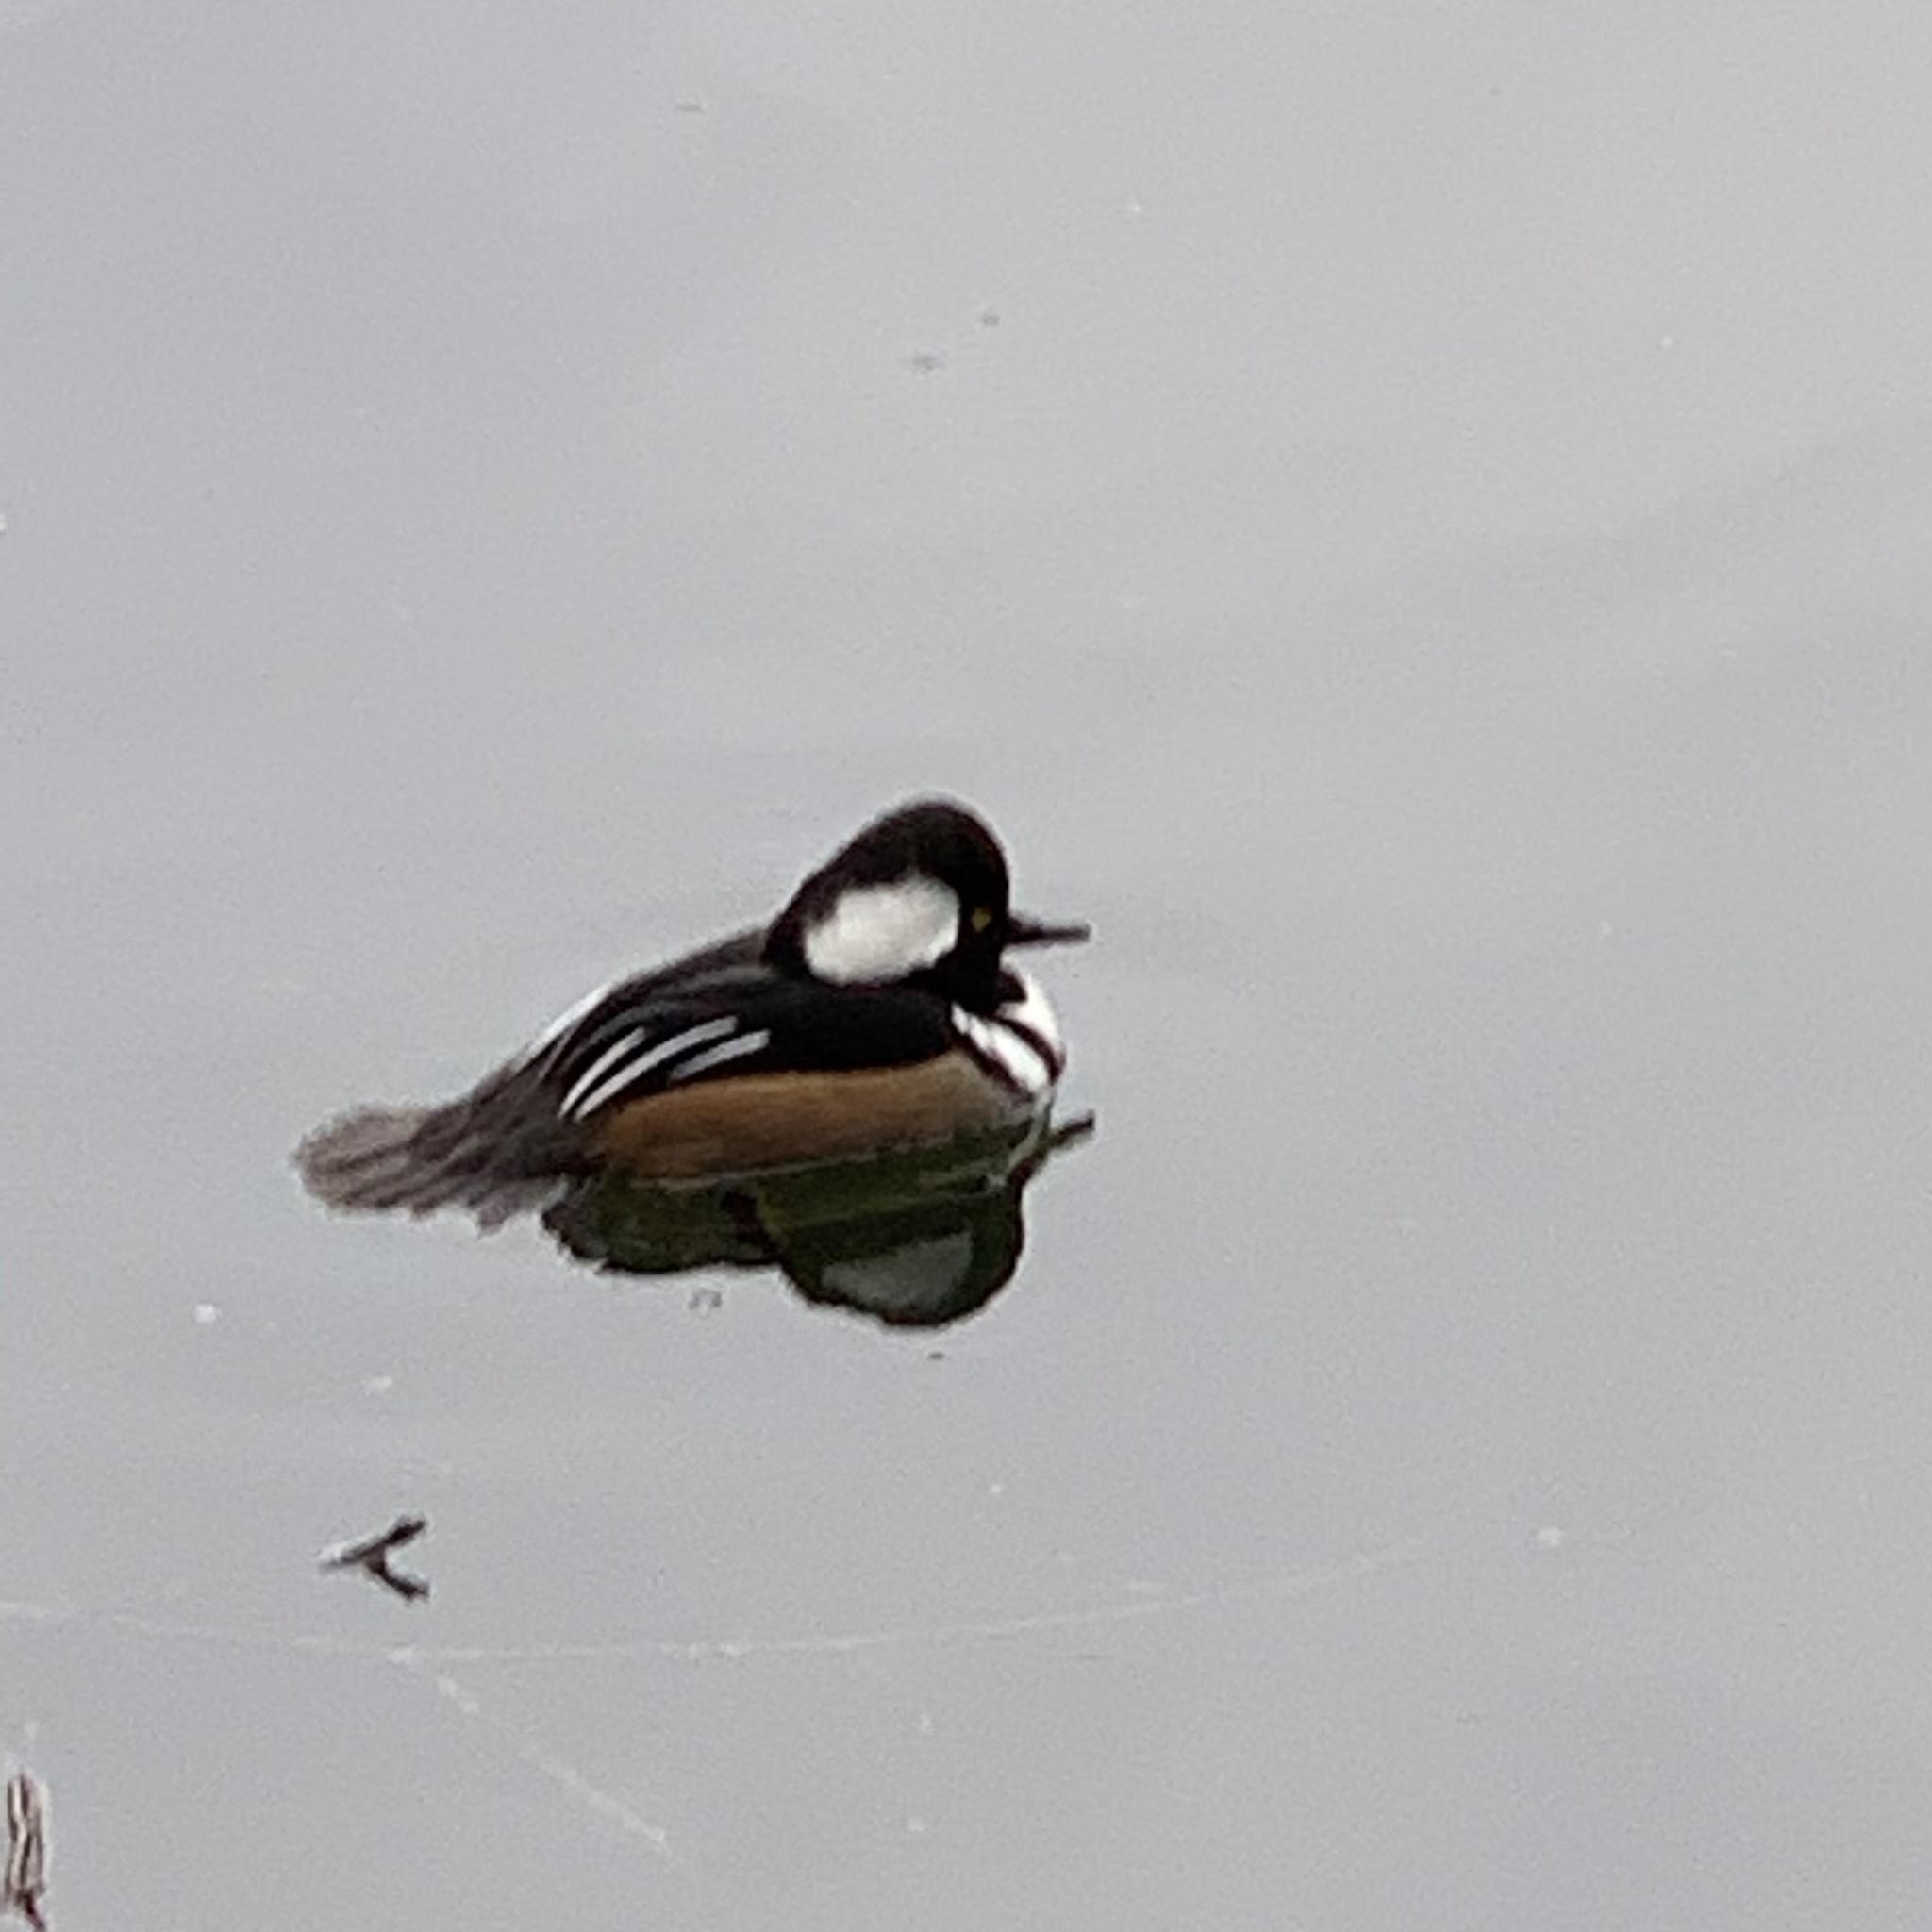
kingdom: Animalia
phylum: Chordata
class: Aves
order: Anseriformes
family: Anatidae
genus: Lophodytes
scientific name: Lophodytes cucullatus
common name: Hooded merganser
